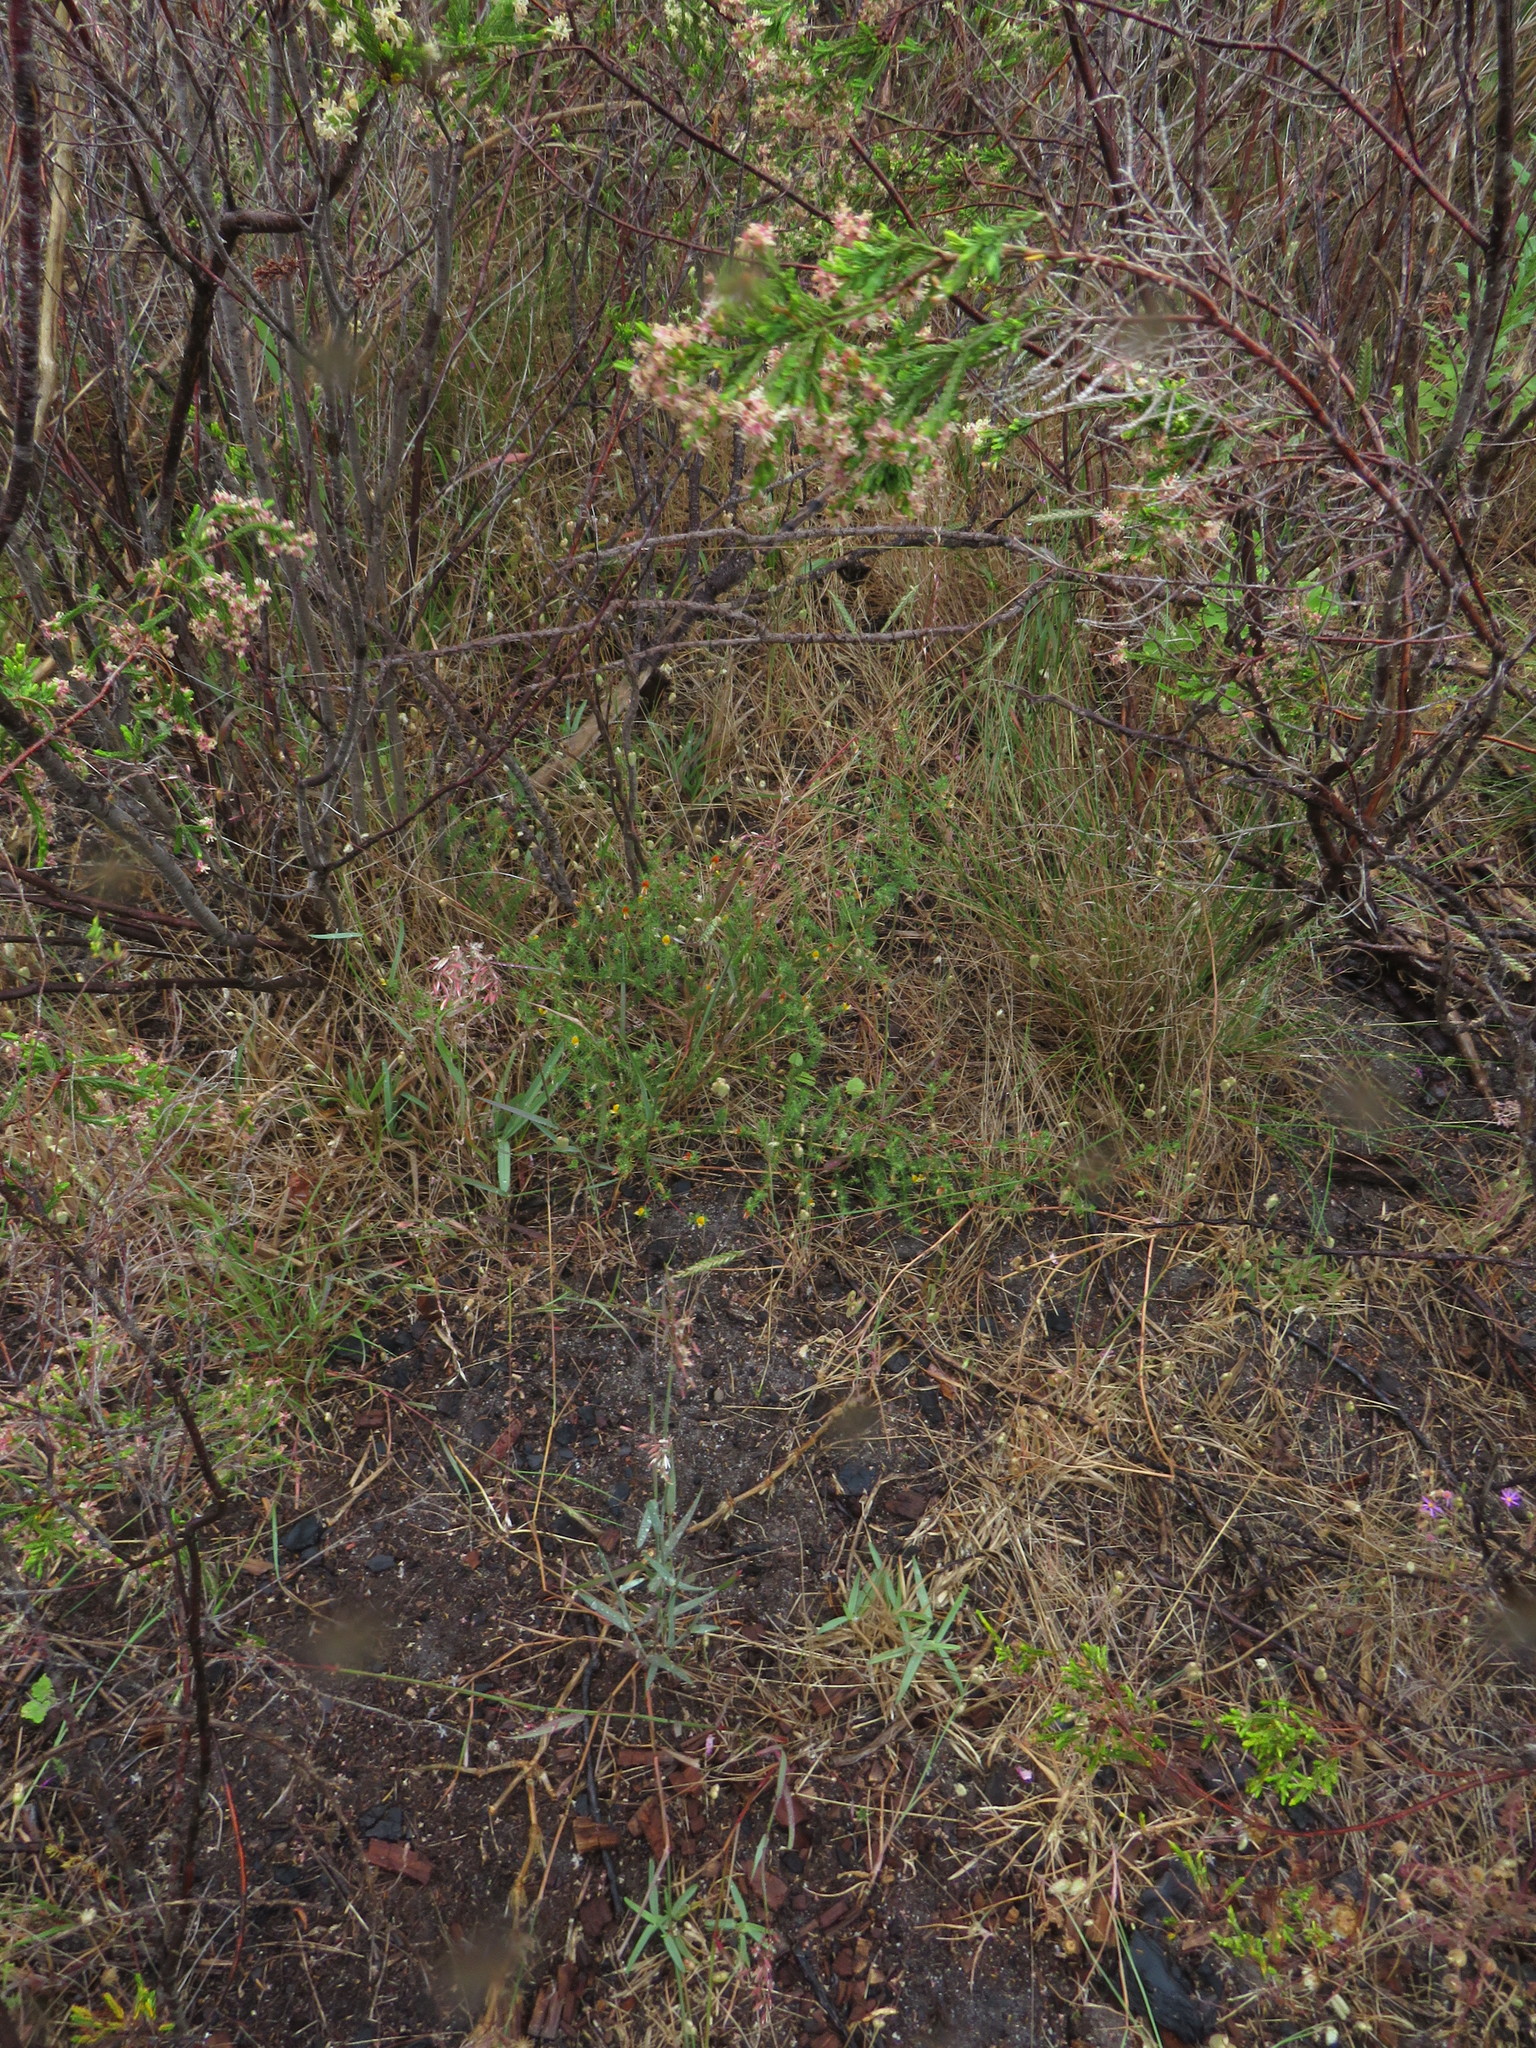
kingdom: Plantae
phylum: Tracheophyta
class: Magnoliopsida
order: Fabales
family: Fabaceae
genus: Aspalathus
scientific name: Aspalathus retroflexa
